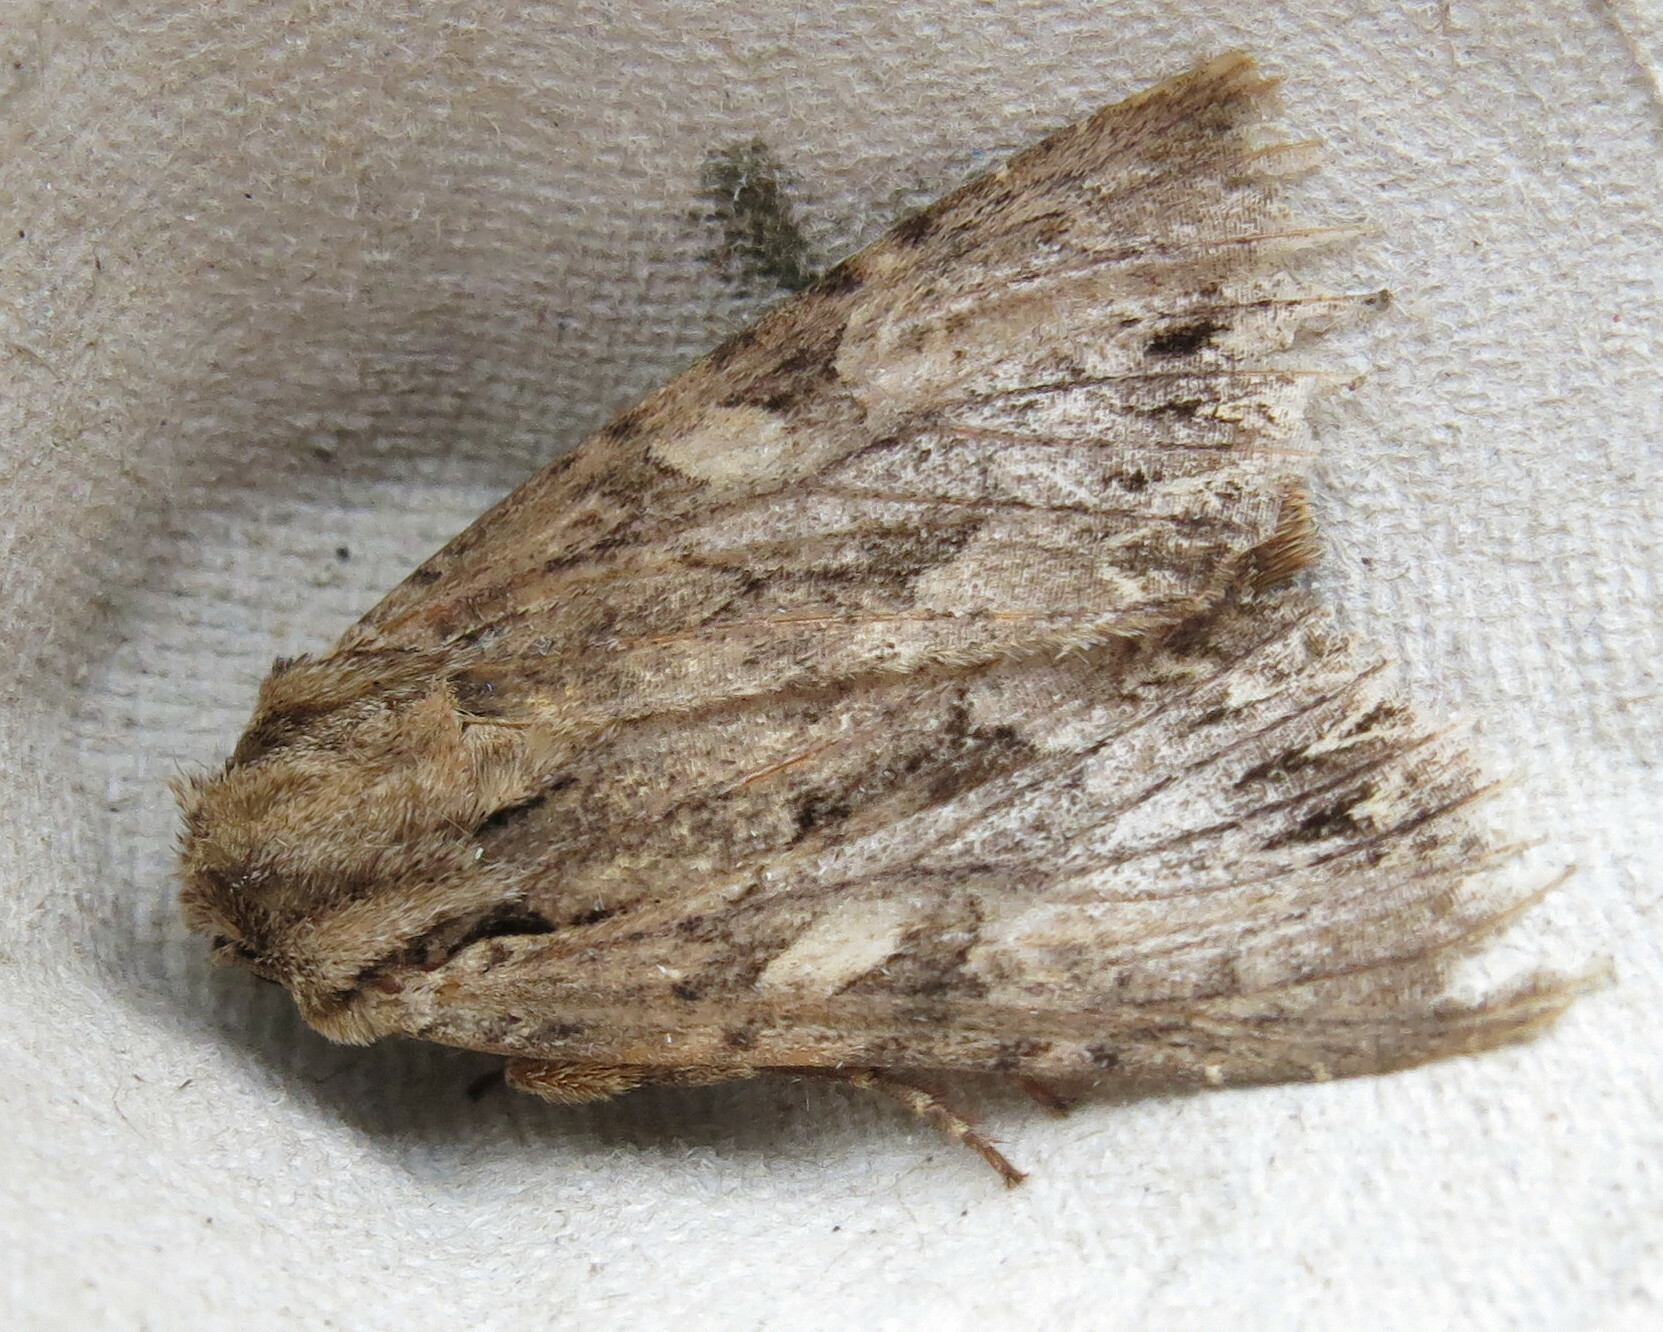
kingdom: Animalia
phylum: Arthropoda
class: Insecta
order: Lepidoptera
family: Noctuidae
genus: Apamea
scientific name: Apamea monoglypha
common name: Dark arches
